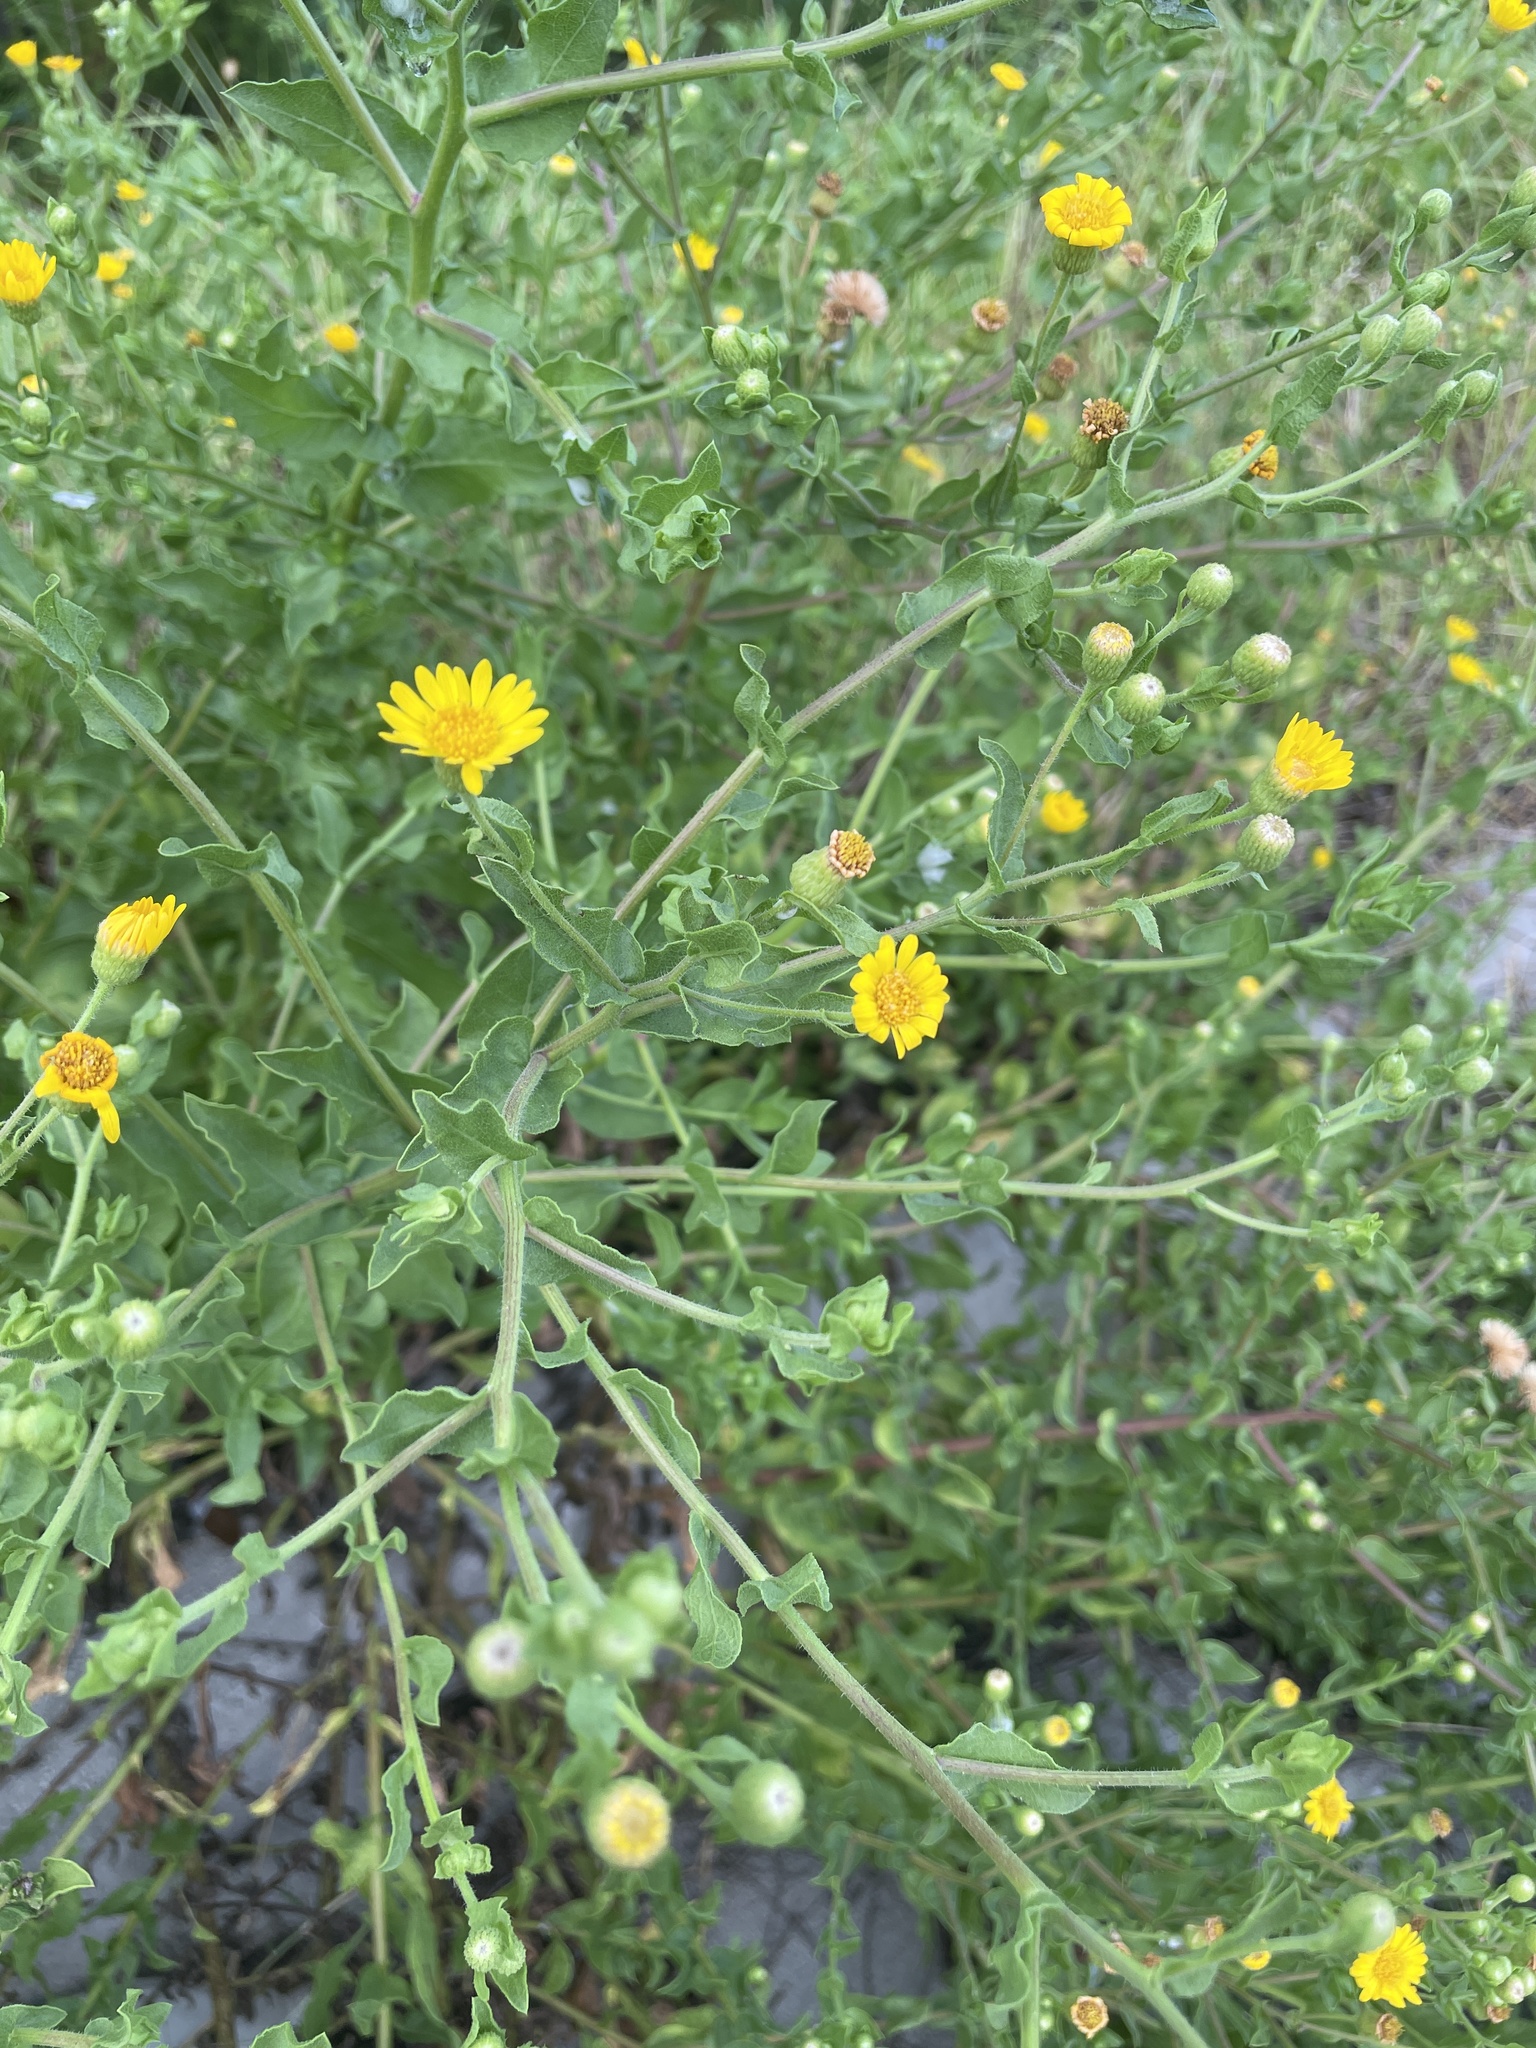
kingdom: Plantae
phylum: Tracheophyta
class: Magnoliopsida
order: Asterales
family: Asteraceae
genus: Heterotheca
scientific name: Heterotheca subaxillaris
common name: Camphorweed
